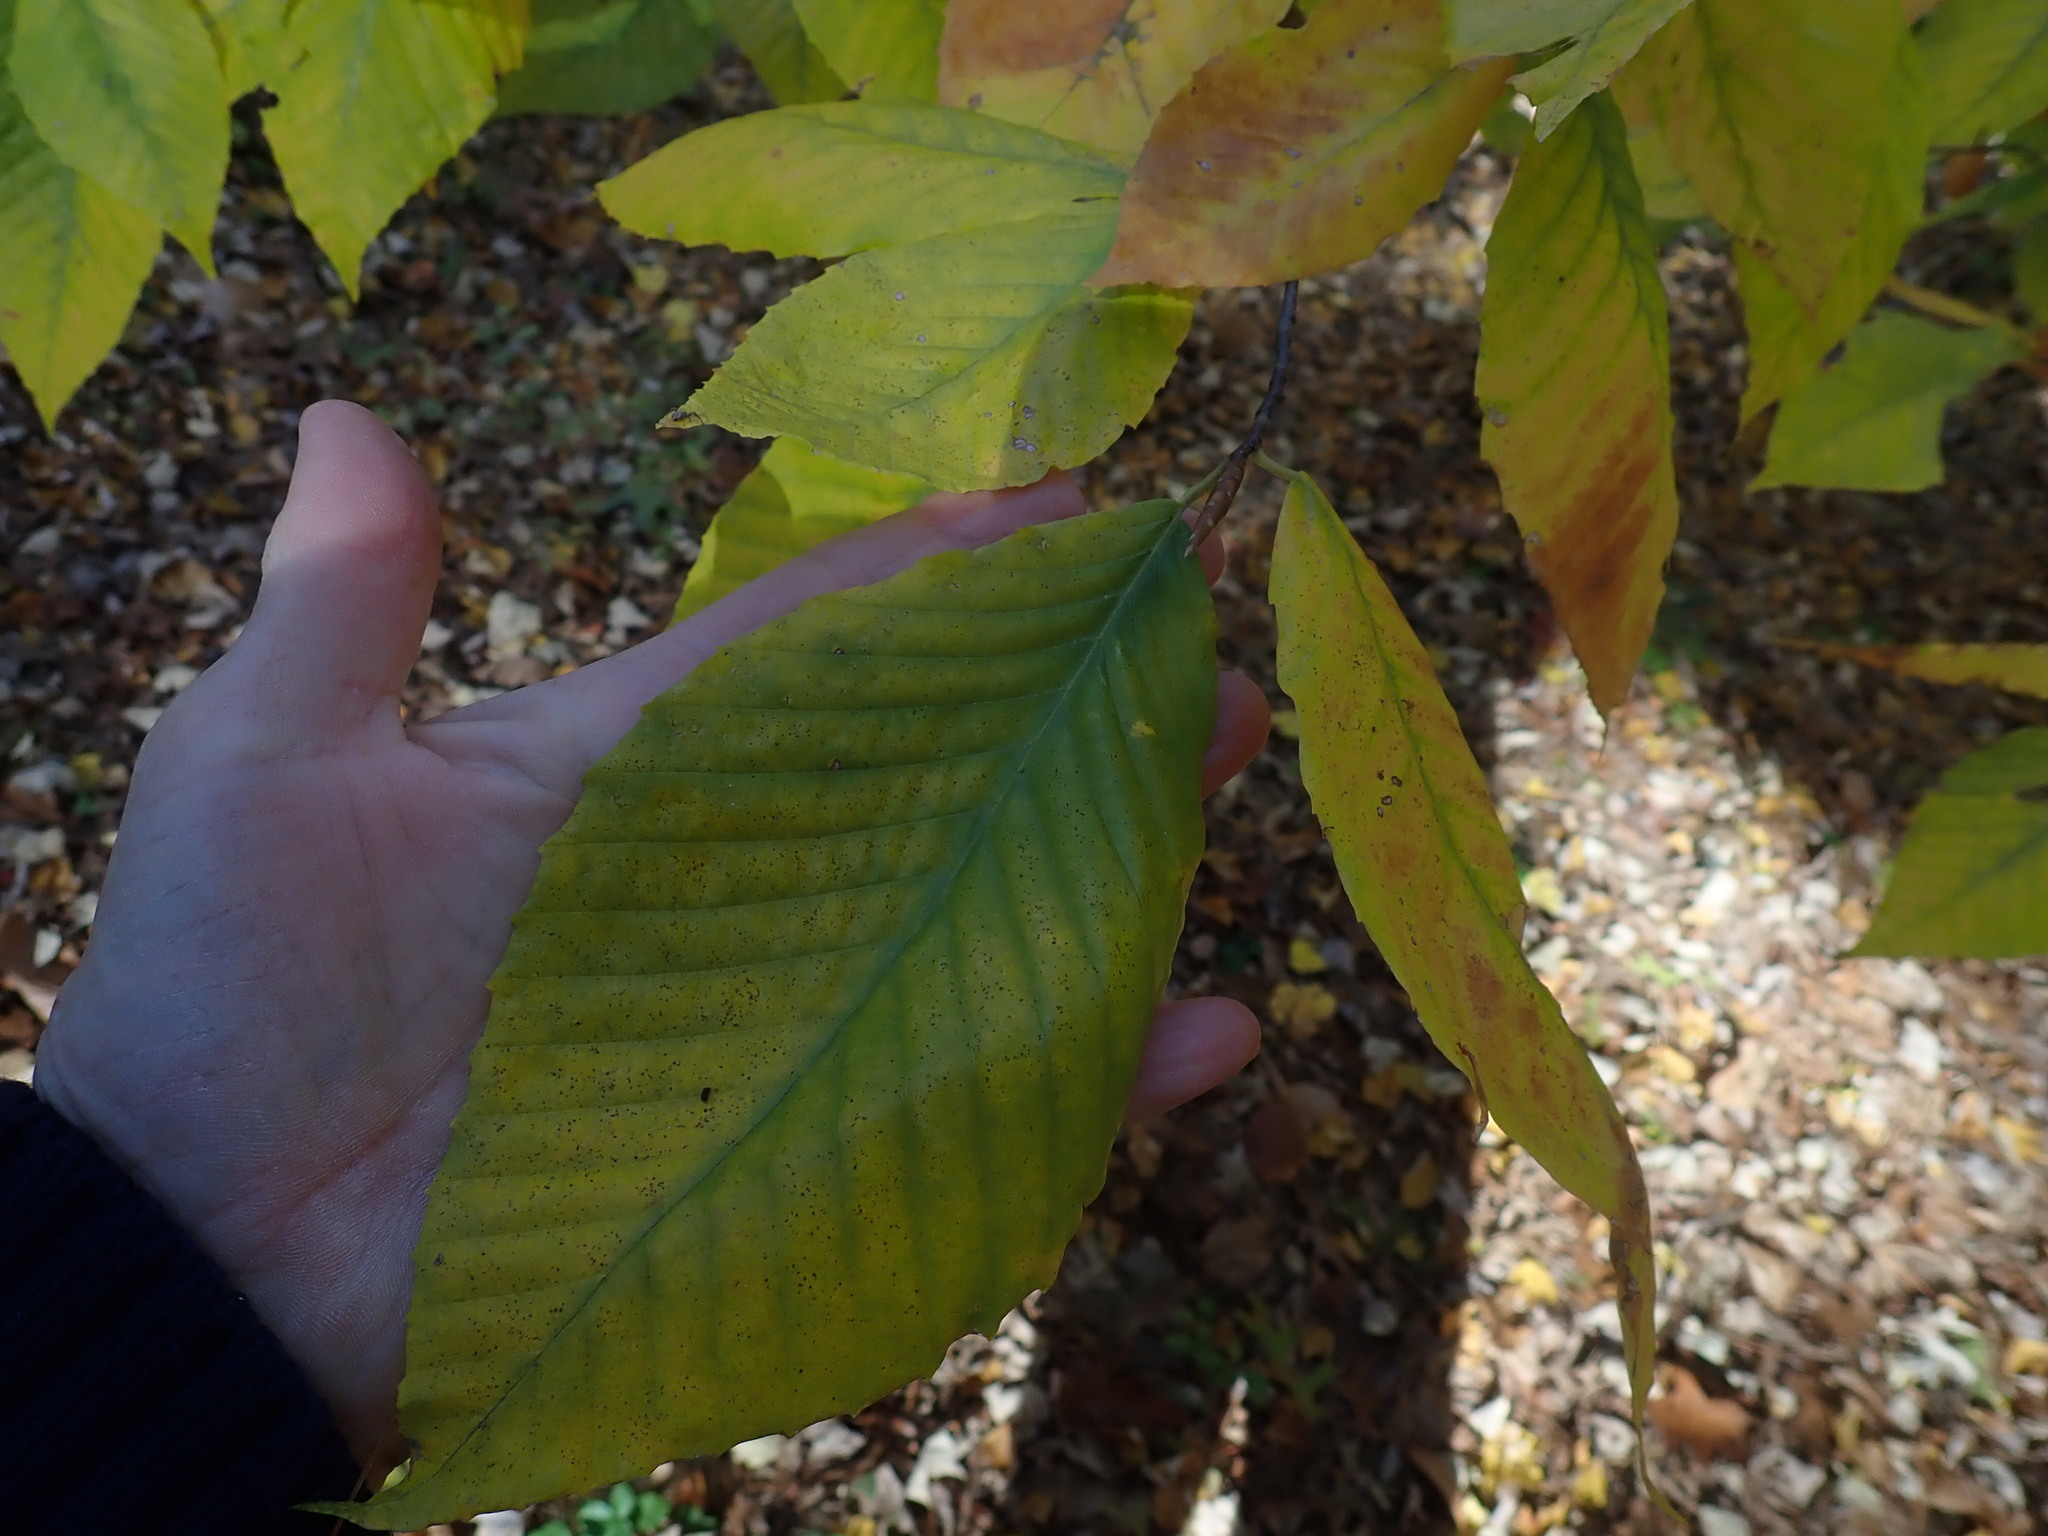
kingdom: Plantae
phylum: Tracheophyta
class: Magnoliopsida
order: Fagales
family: Fagaceae
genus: Fagus
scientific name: Fagus grandifolia
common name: American beech
